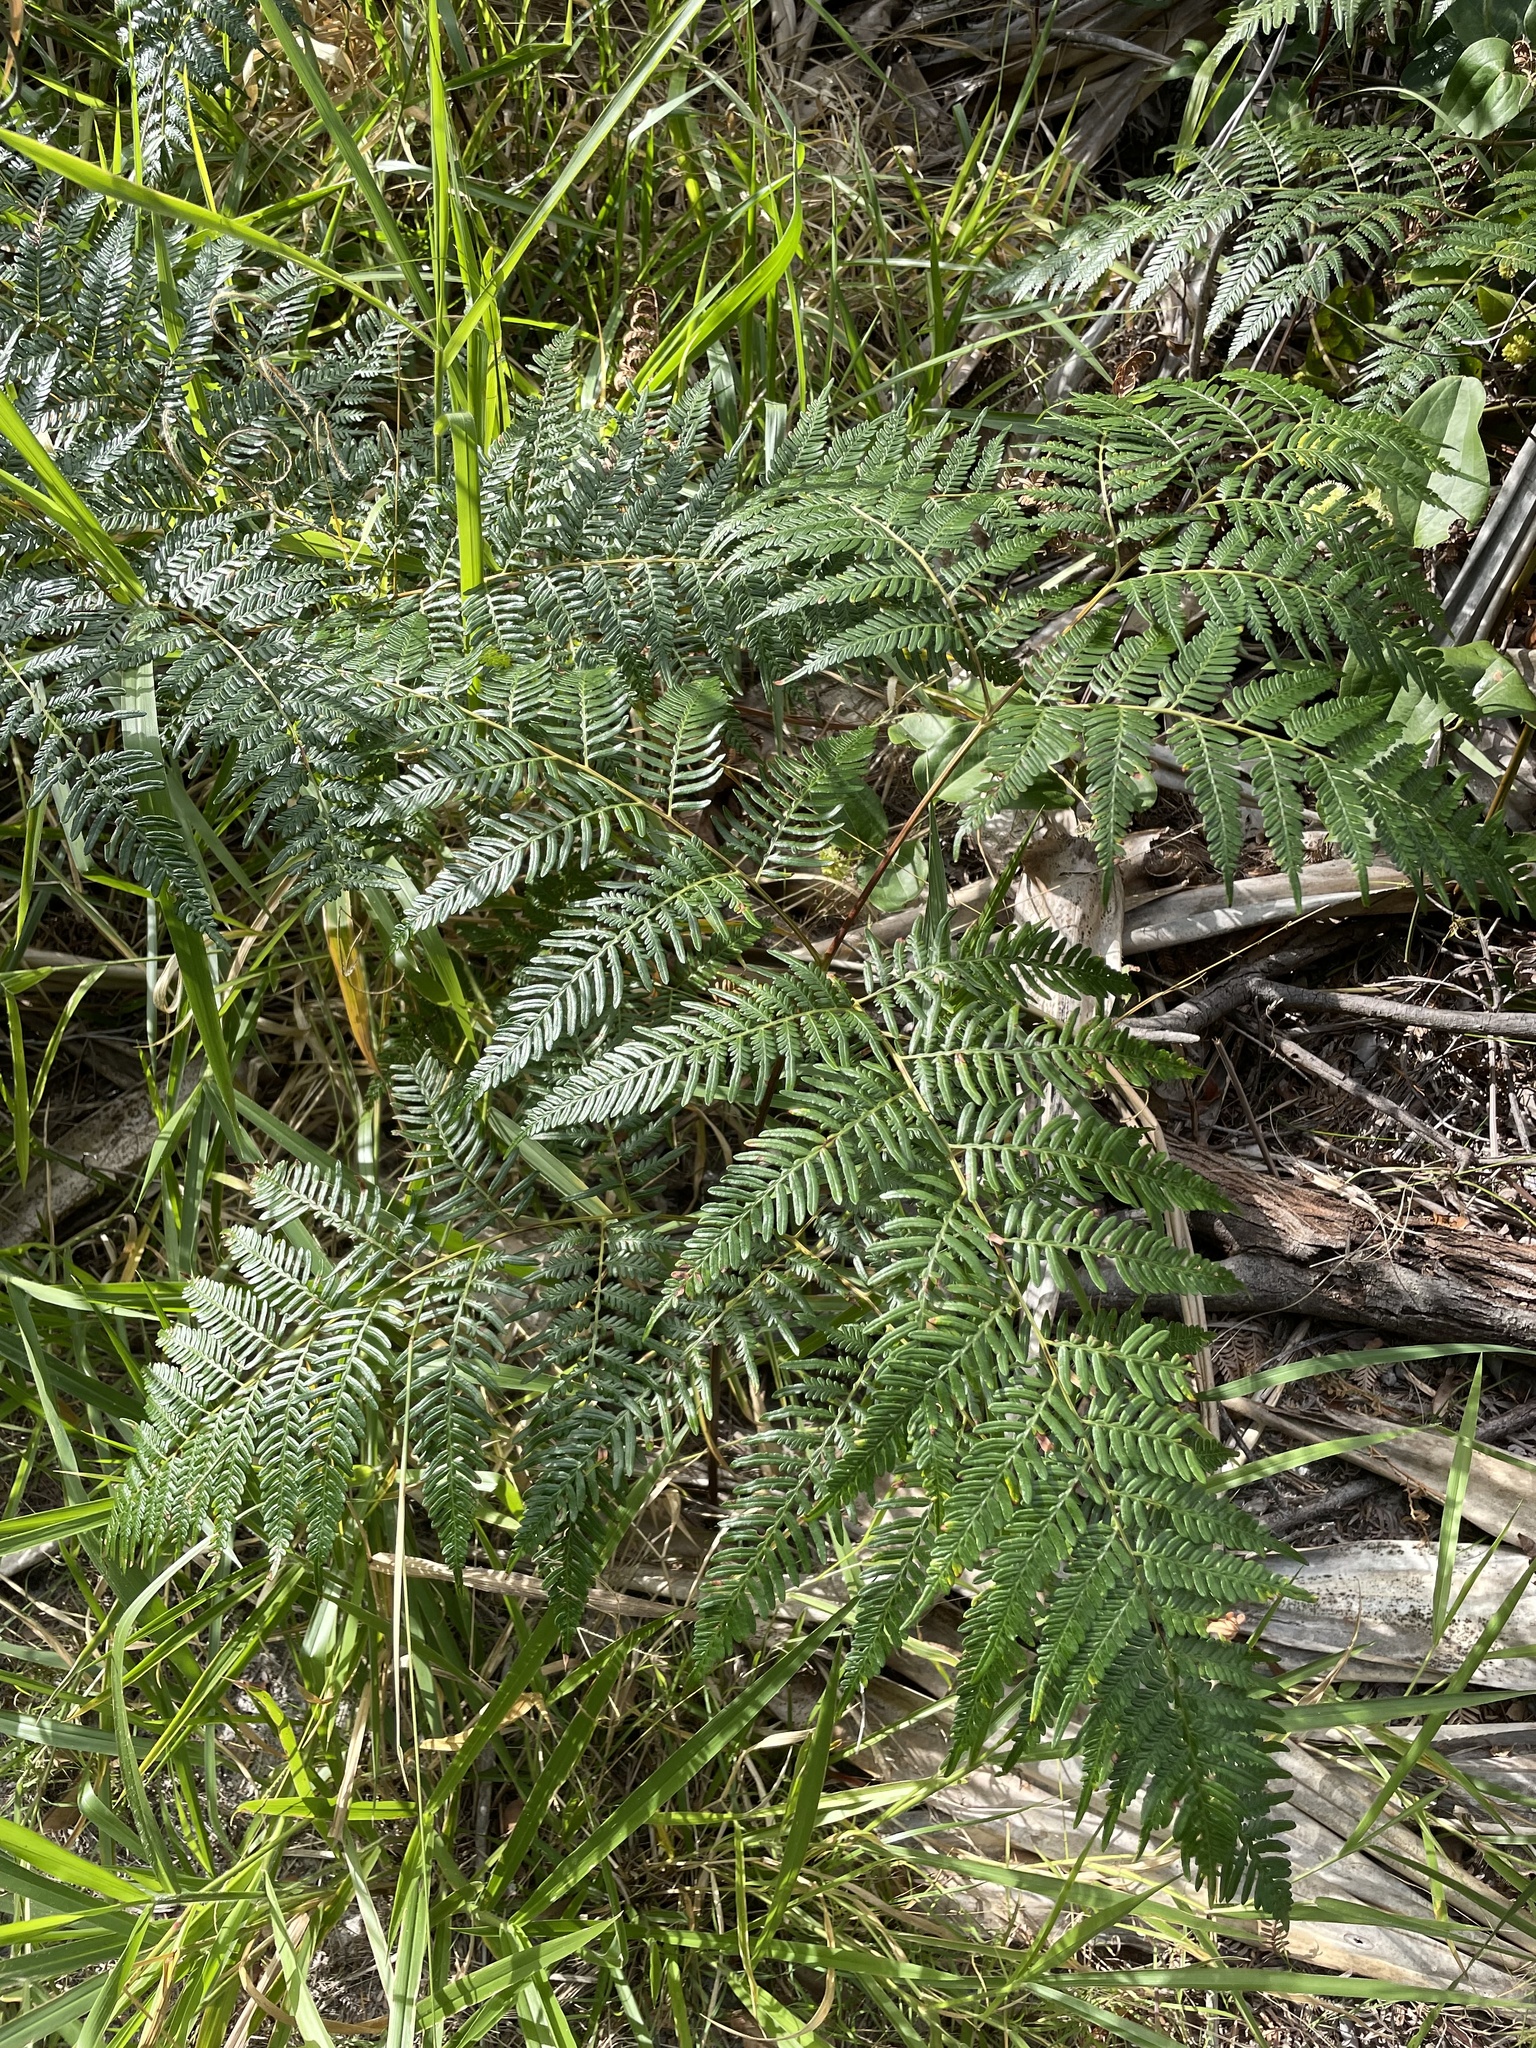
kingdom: Plantae
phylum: Tracheophyta
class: Polypodiopsida
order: Polypodiales
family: Dennstaedtiaceae
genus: Pteridium
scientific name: Pteridium esculentum
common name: Bracken fern
